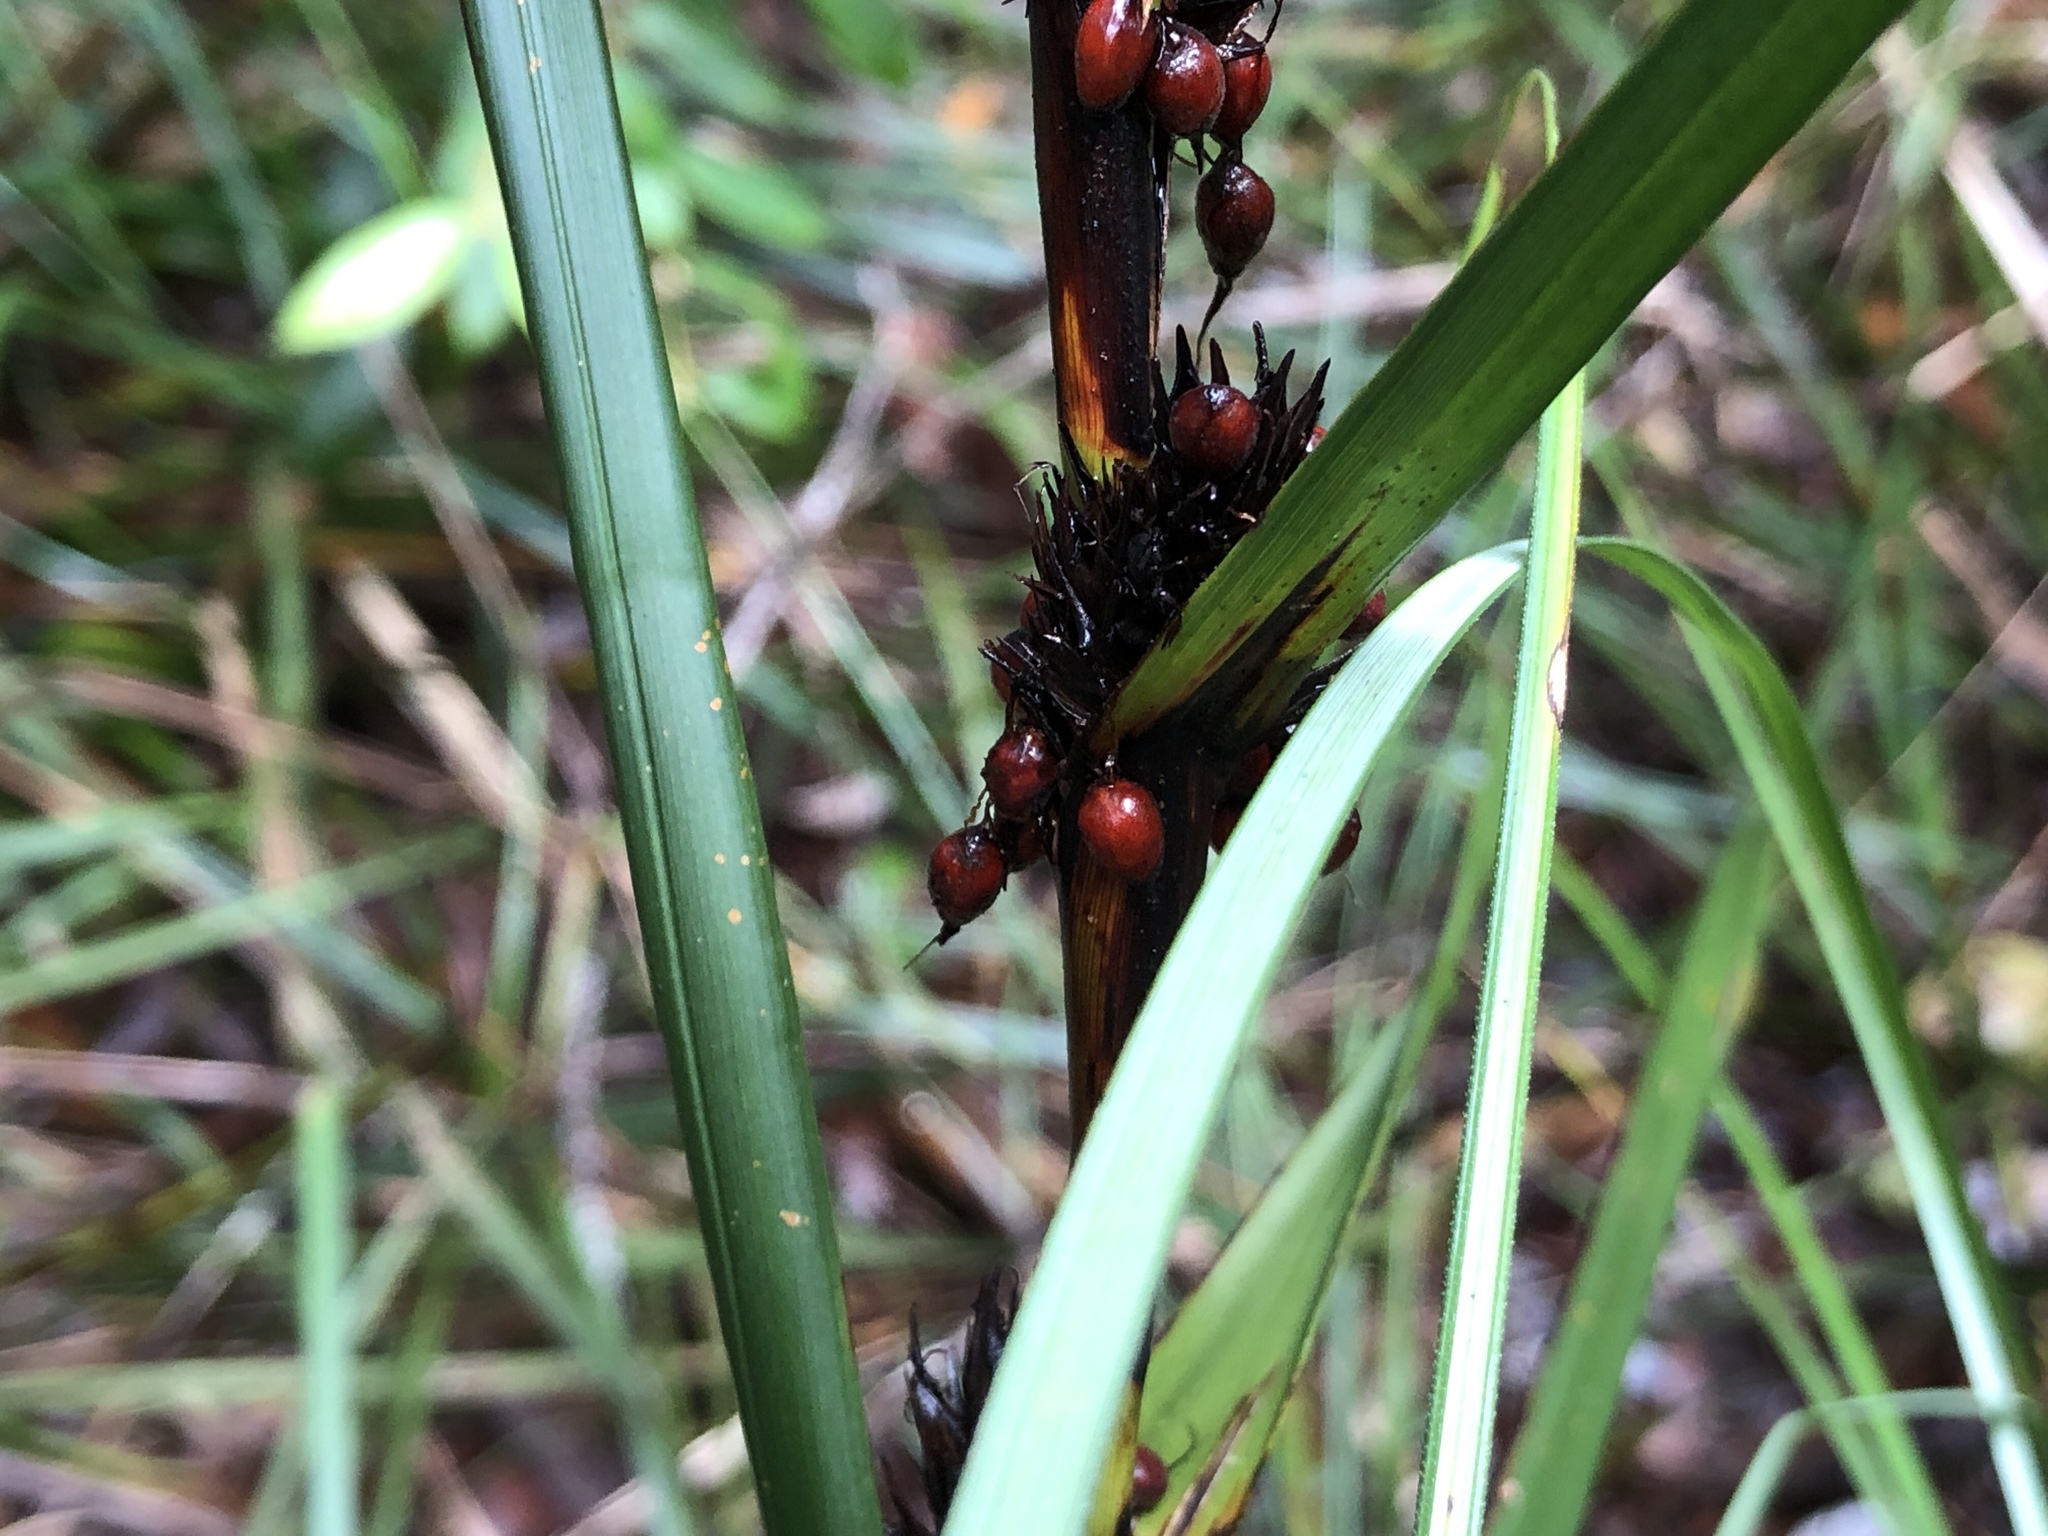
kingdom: Plantae
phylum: Tracheophyta
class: Liliopsida
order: Poales
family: Cyperaceae
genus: Gahnia
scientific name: Gahnia aspera
